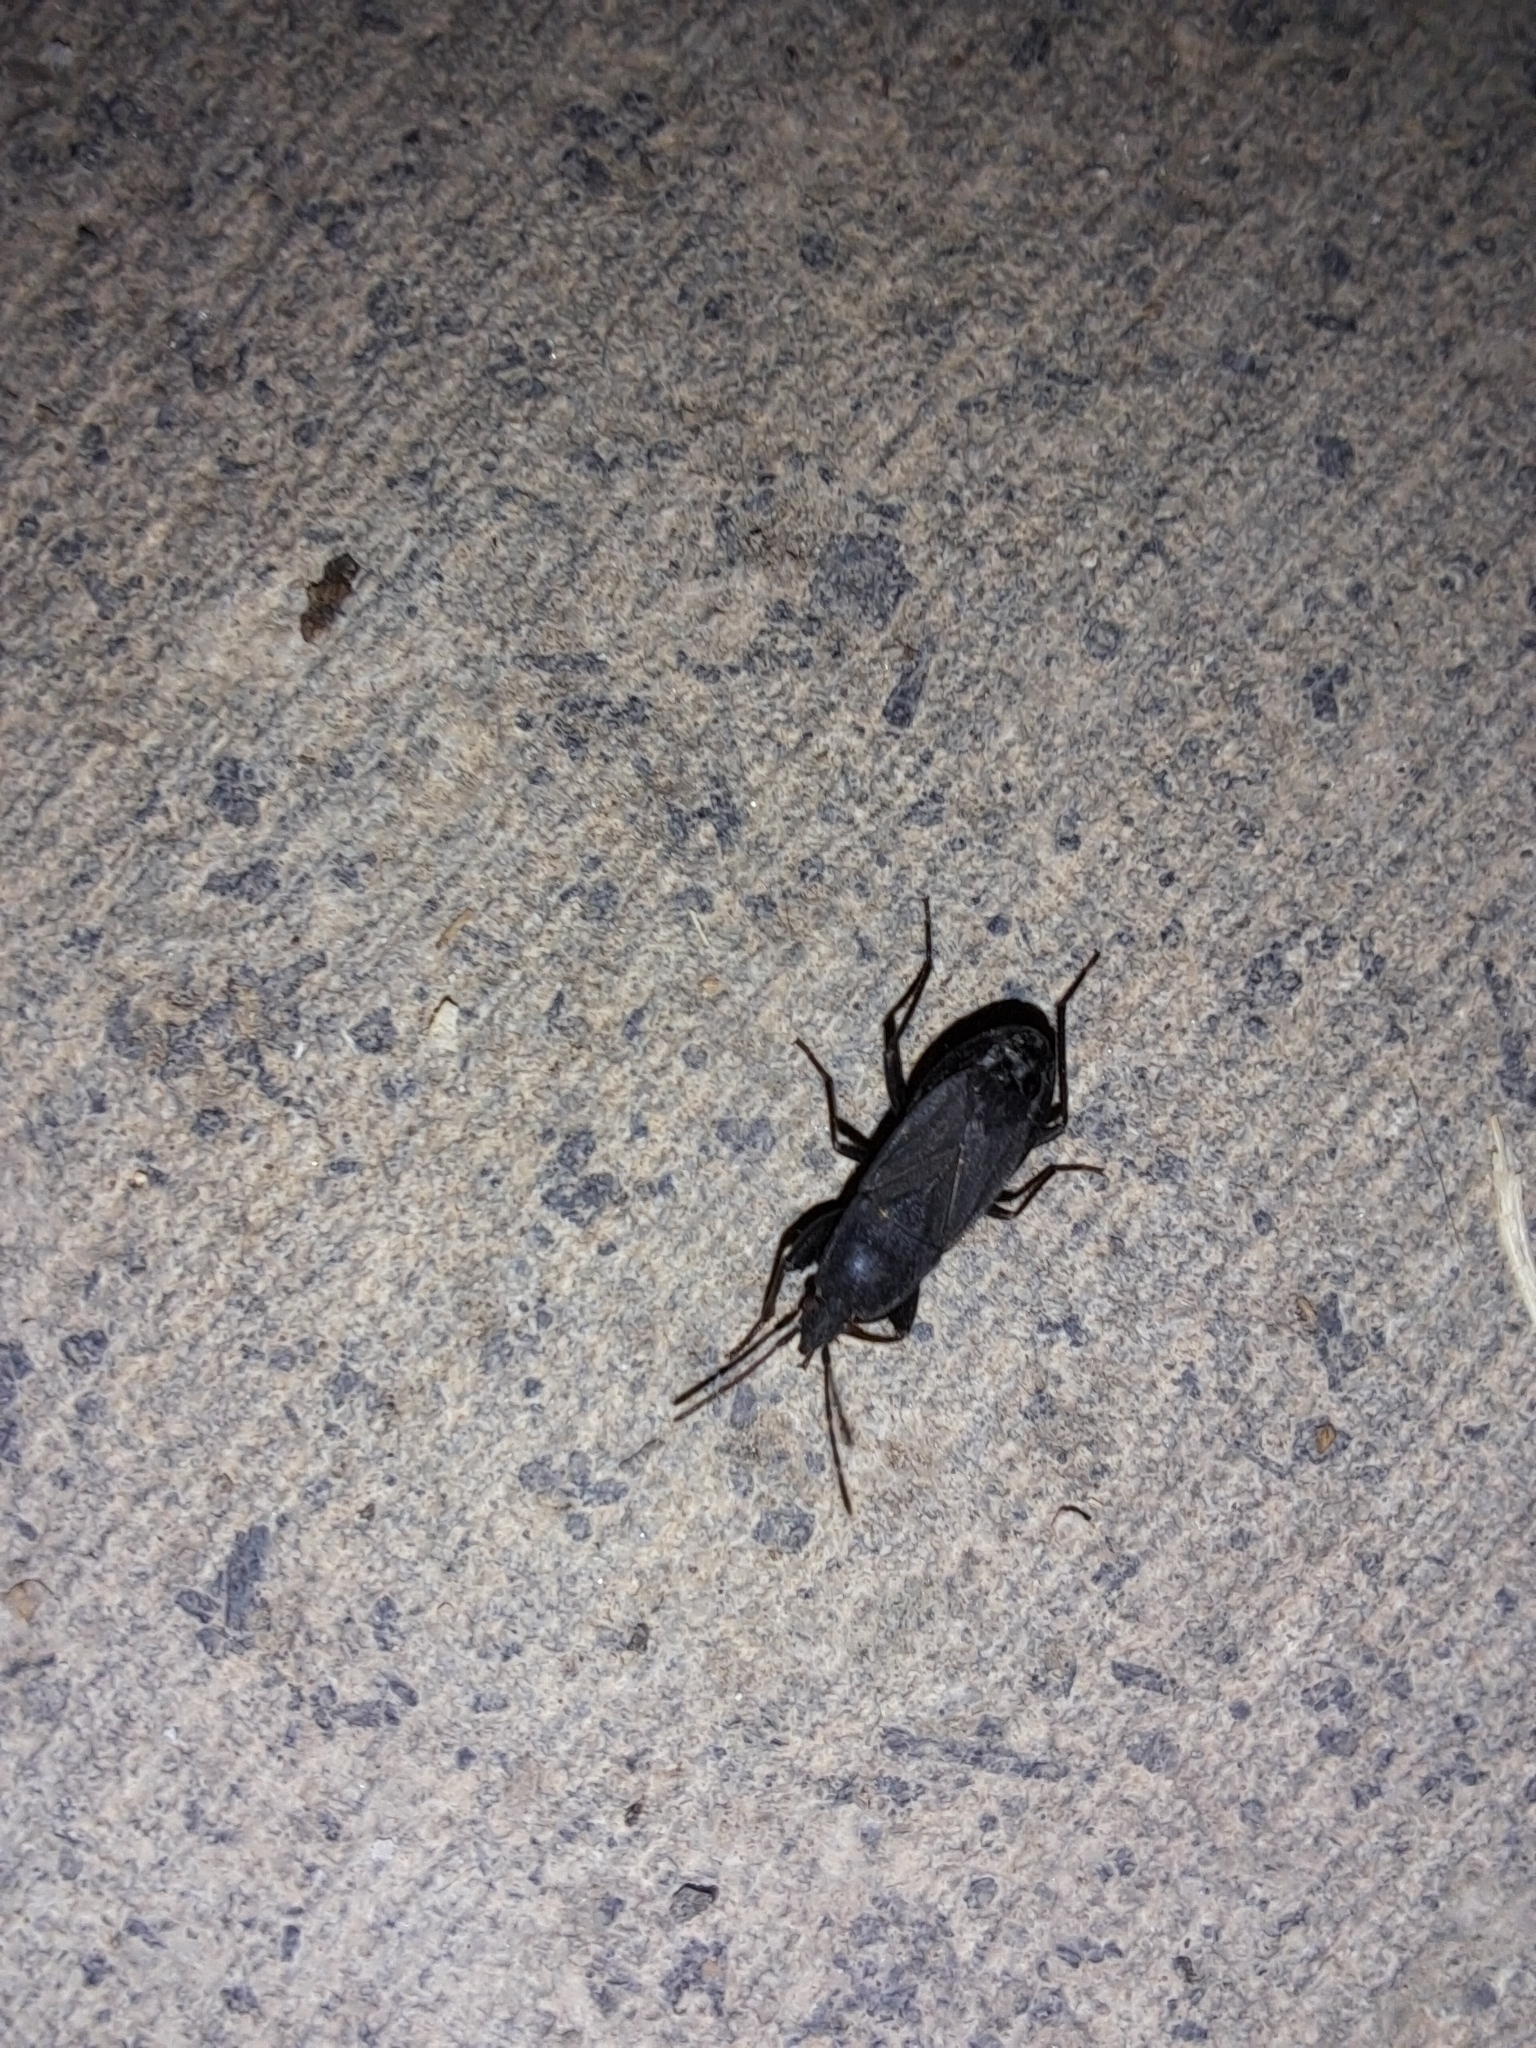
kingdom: Animalia
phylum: Arthropoda
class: Insecta
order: Hemiptera
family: Rhyparochromidae
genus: Neurocladus
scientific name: Neurocladus brachiidens
